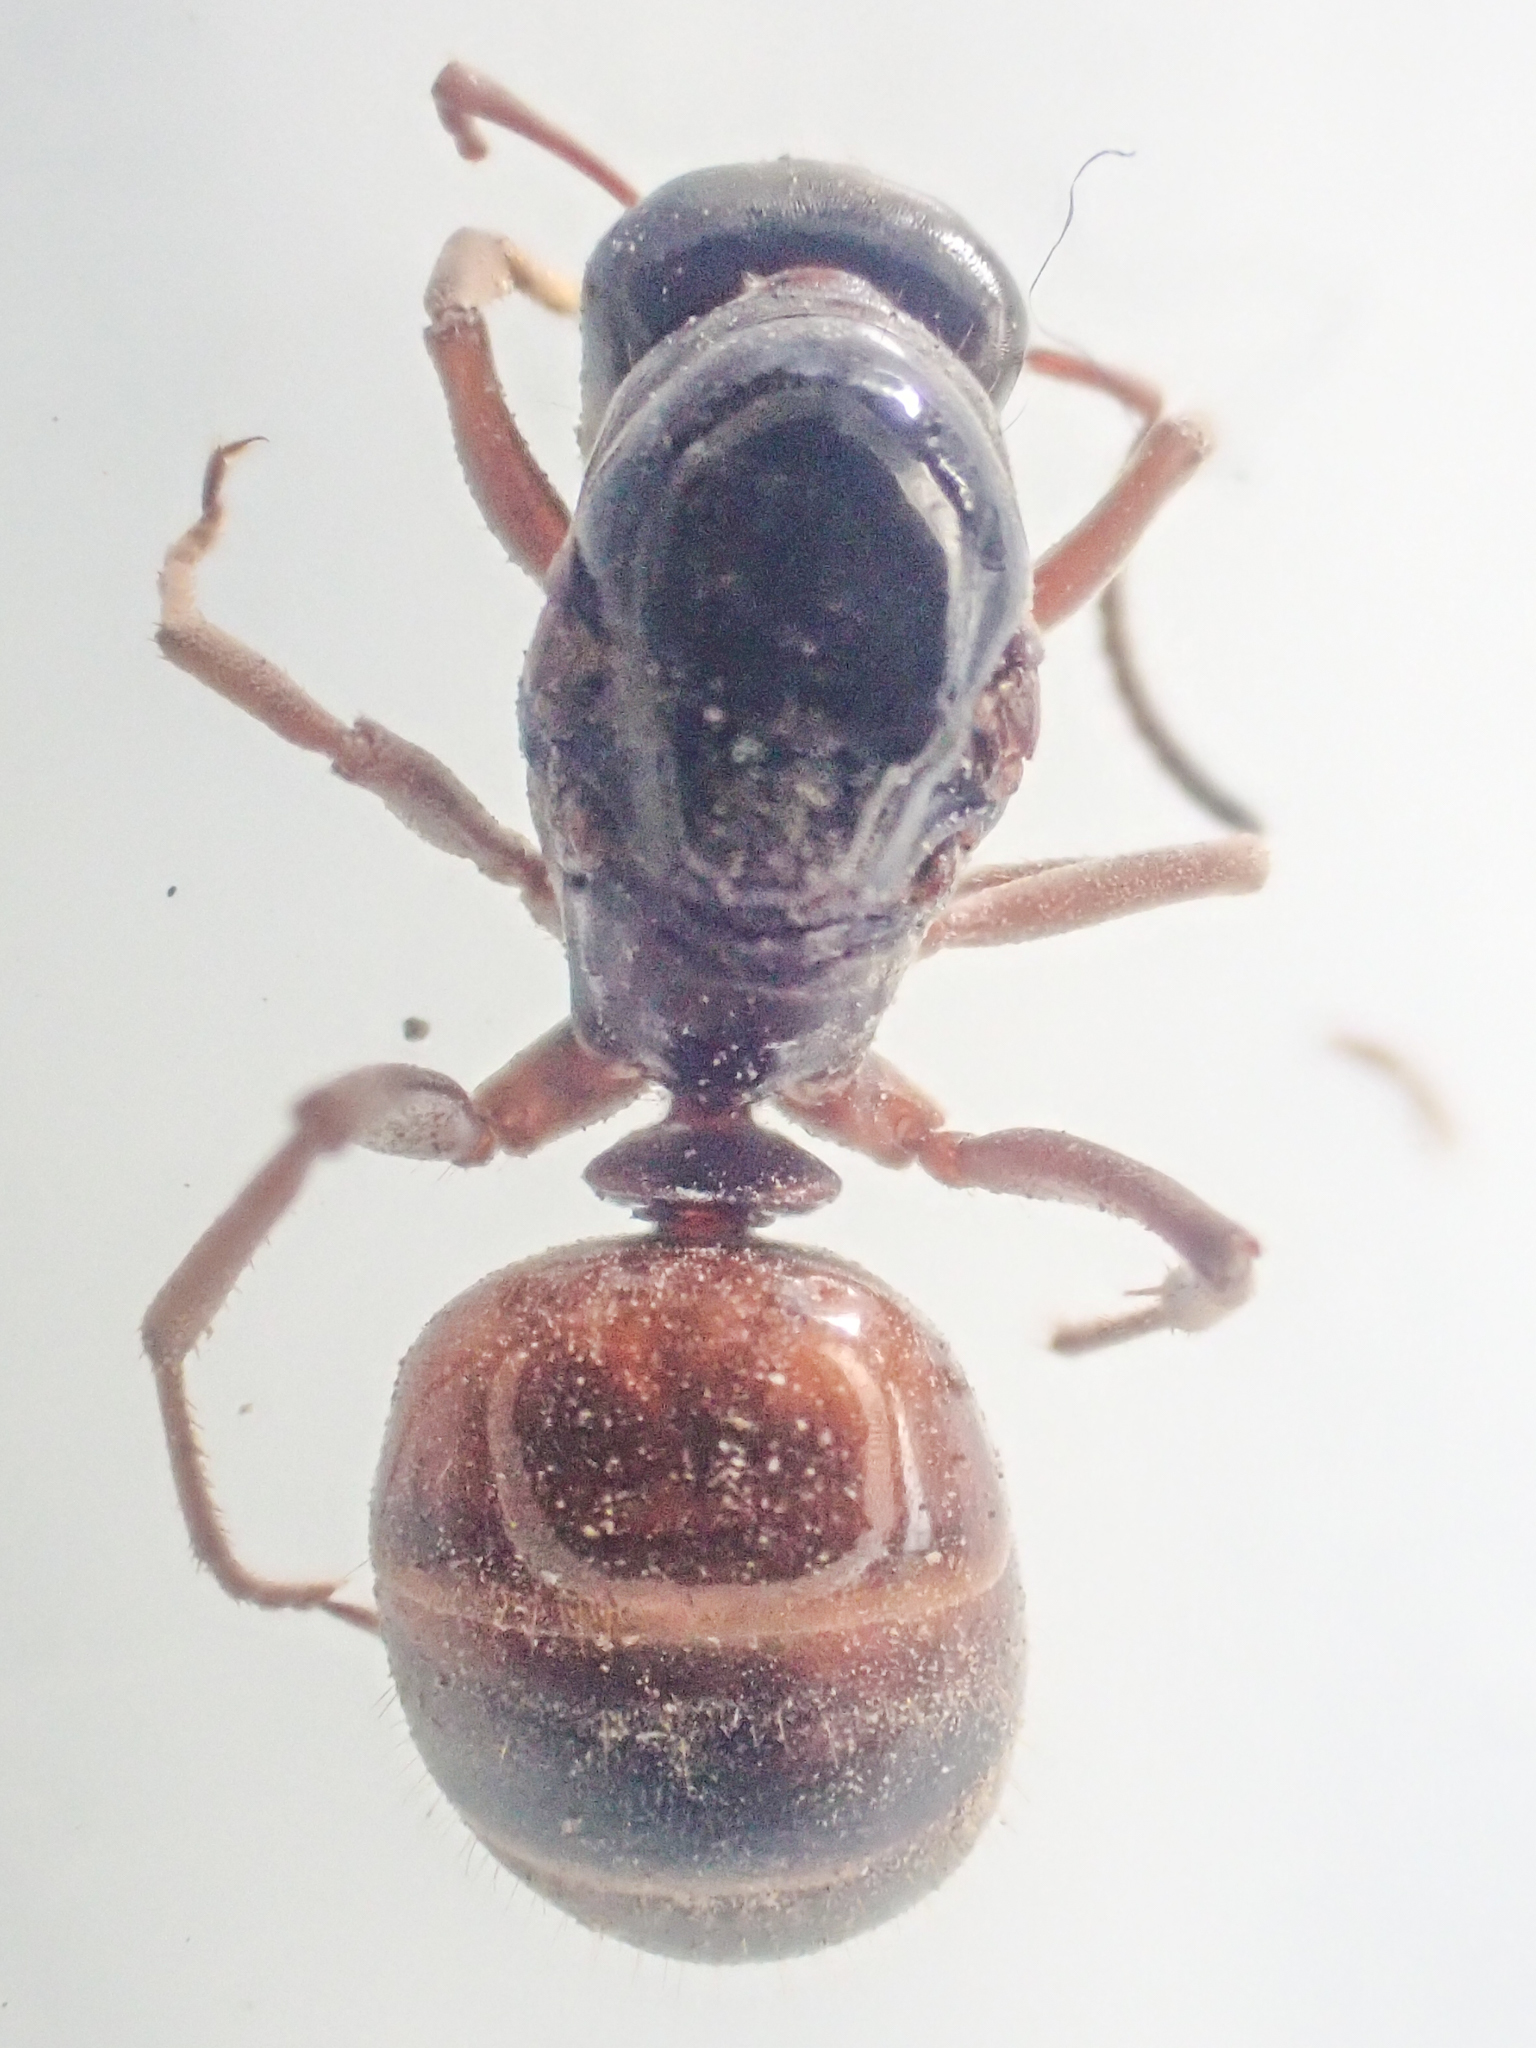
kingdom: Animalia
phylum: Arthropoda
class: Insecta
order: Hymenoptera
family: Formicidae
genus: Formica
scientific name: Formica subpolita
